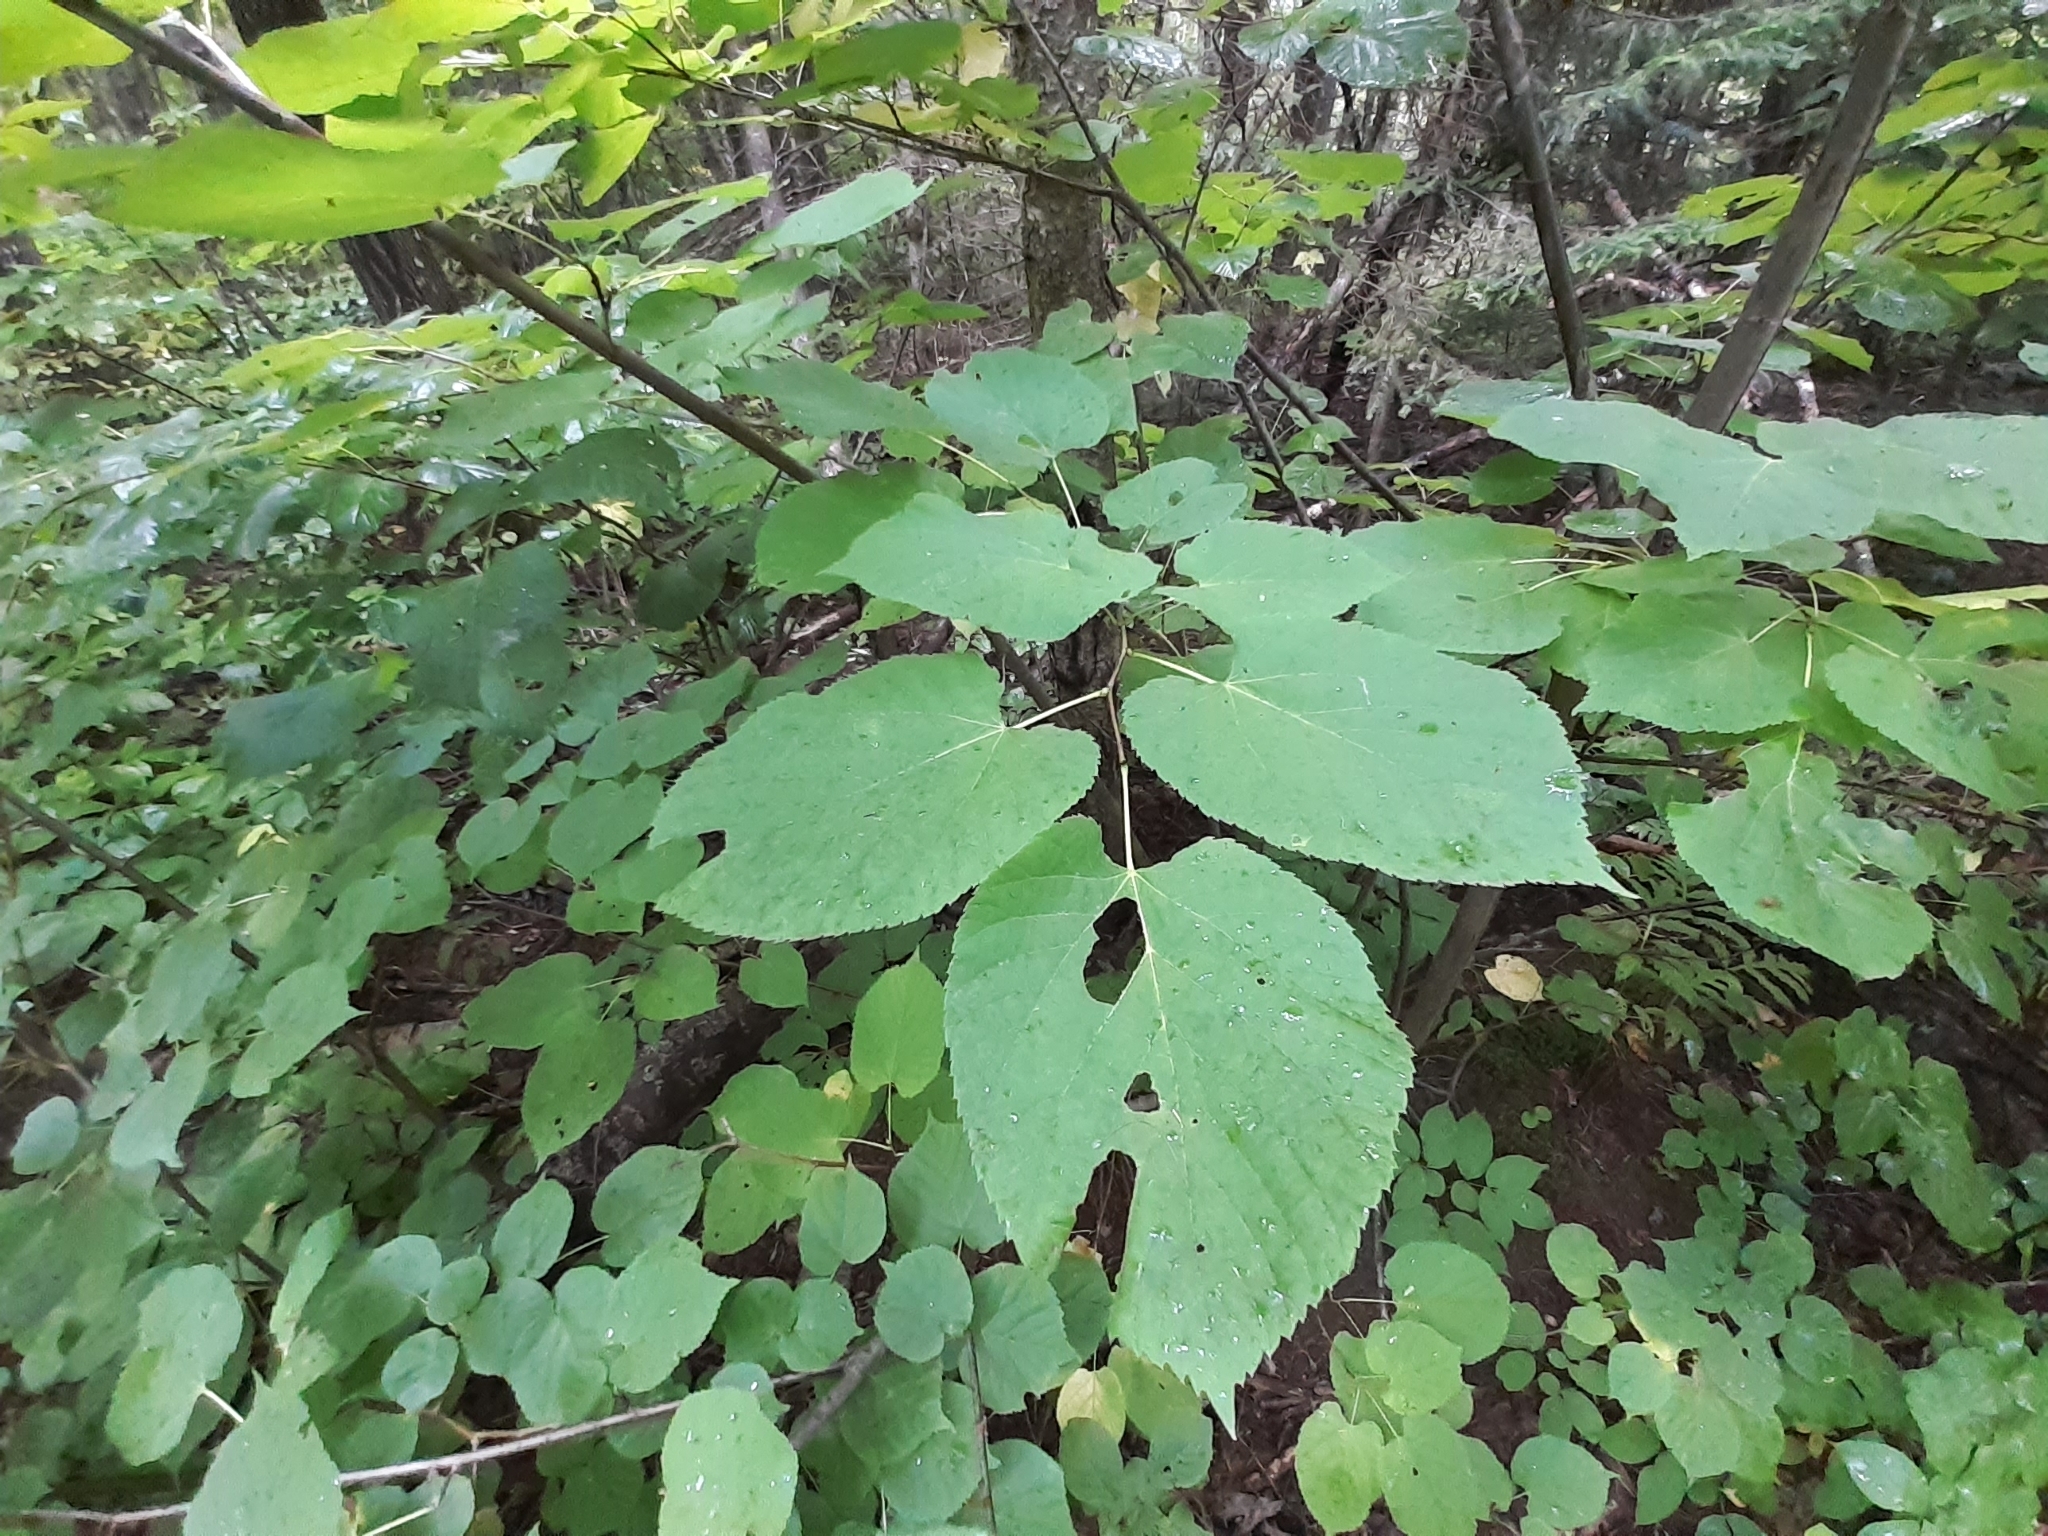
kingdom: Plantae
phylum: Tracheophyta
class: Magnoliopsida
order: Malvales
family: Malvaceae
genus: Tilia
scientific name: Tilia americana
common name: Basswood
